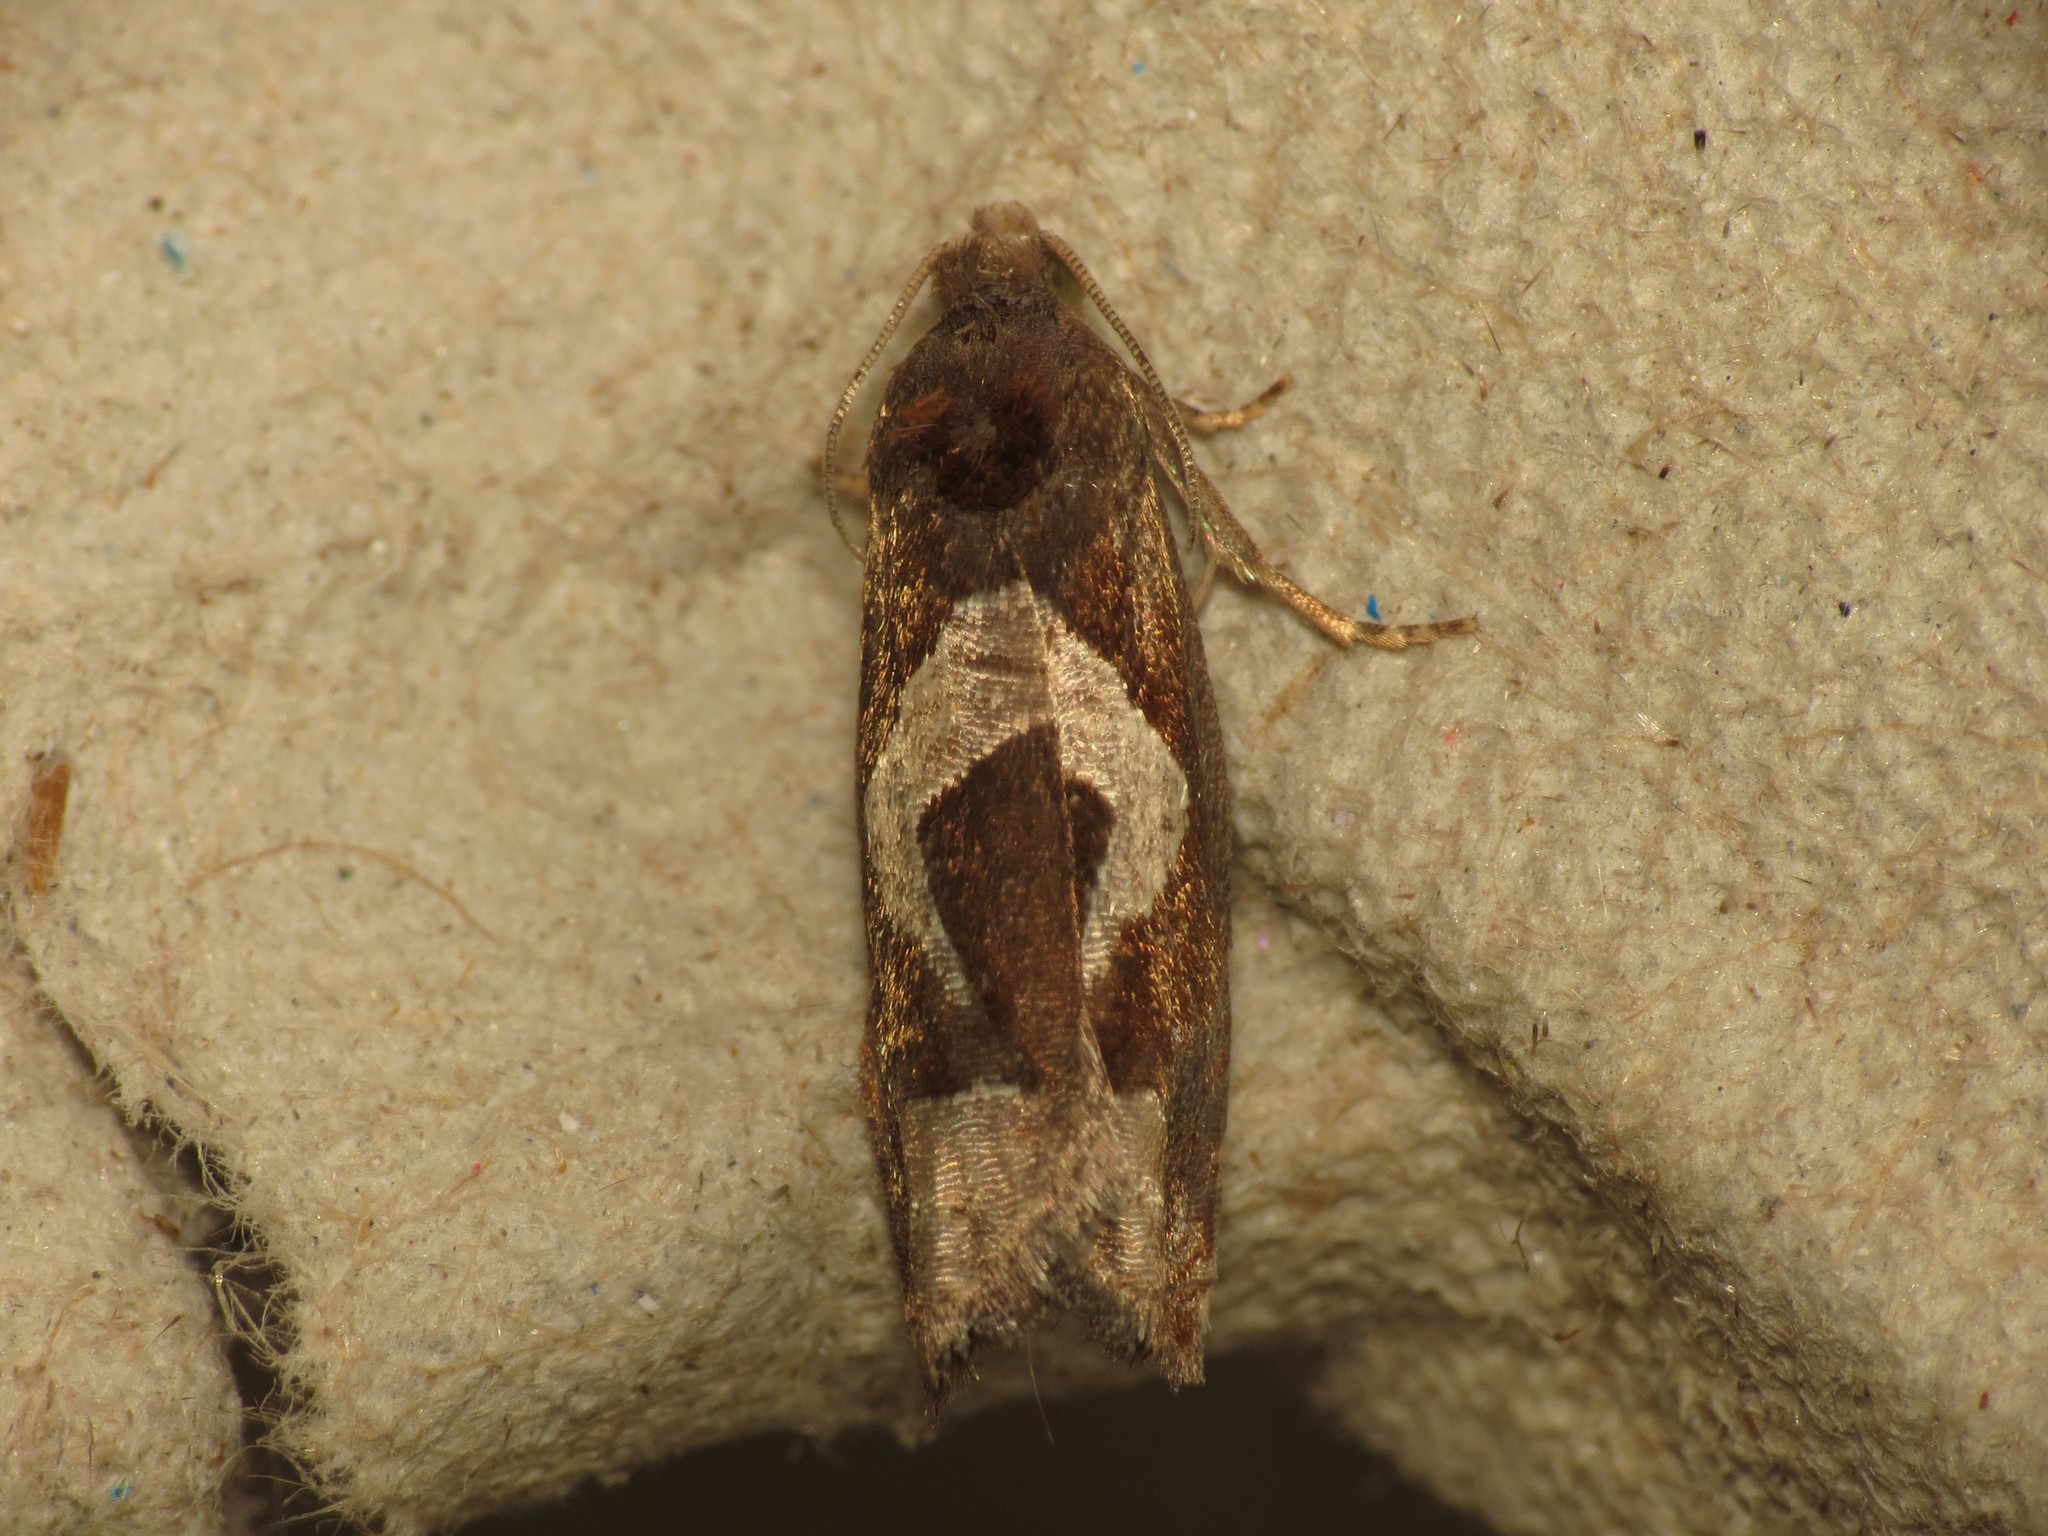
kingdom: Animalia
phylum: Arthropoda
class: Insecta
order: Lepidoptera
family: Tortricidae
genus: Epiblema
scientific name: Epiblema foenella
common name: White-foot bell
